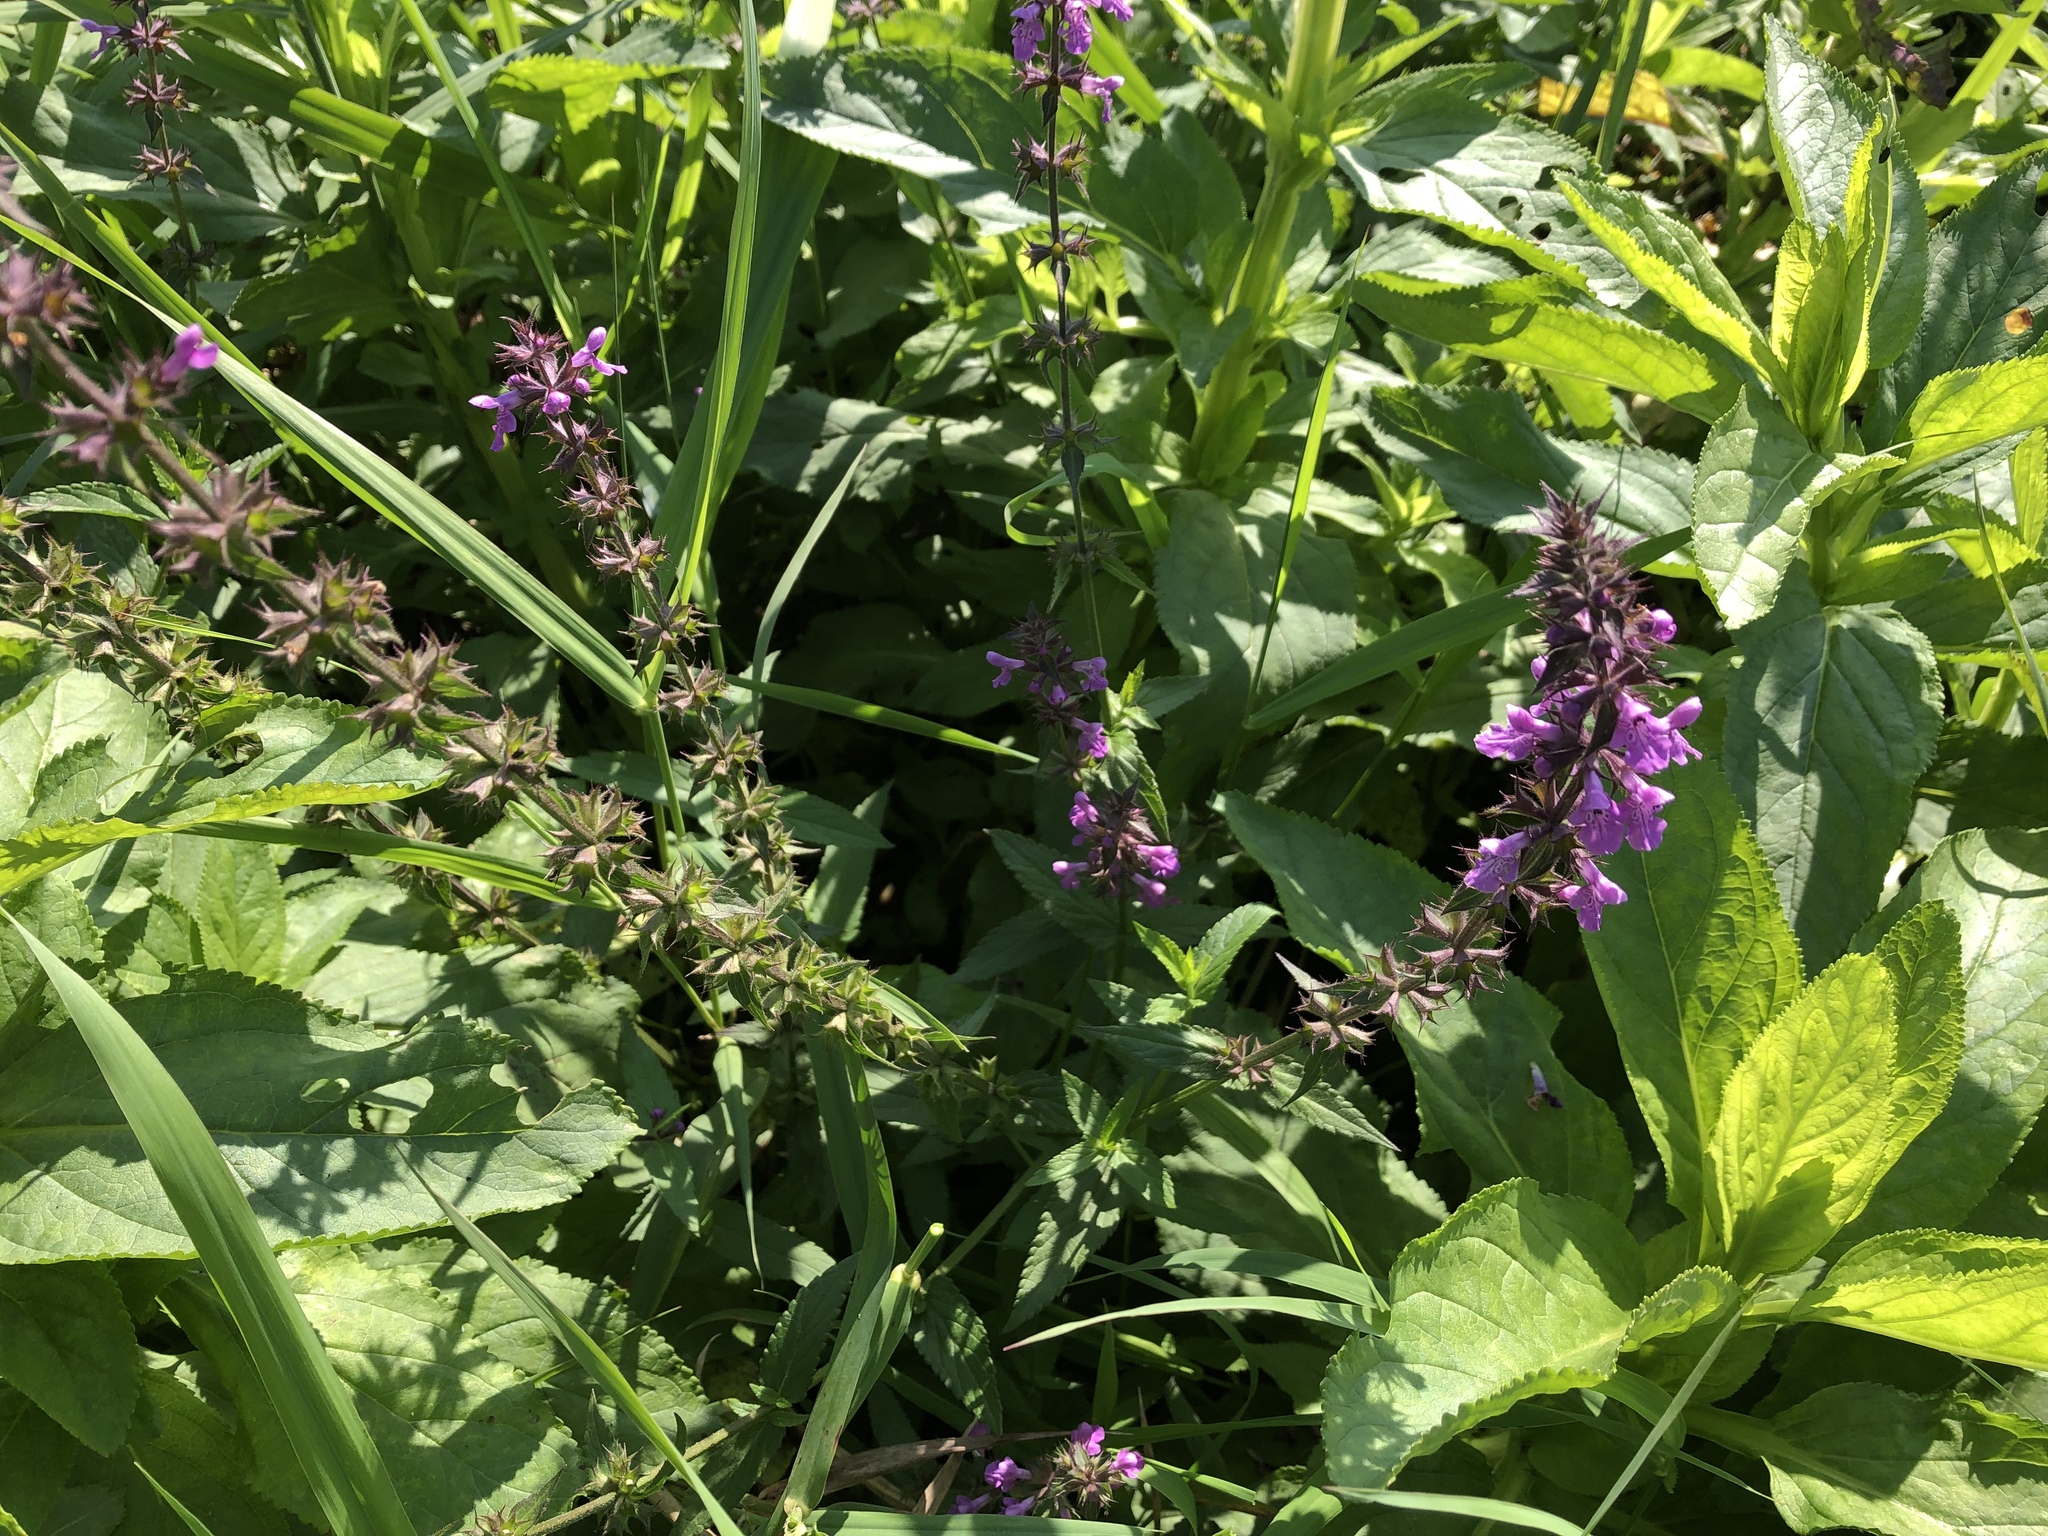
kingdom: Plantae
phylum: Tracheophyta
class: Magnoliopsida
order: Lamiales
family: Lamiaceae
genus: Stachys
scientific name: Stachys palustris
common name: Marsh woundwort
